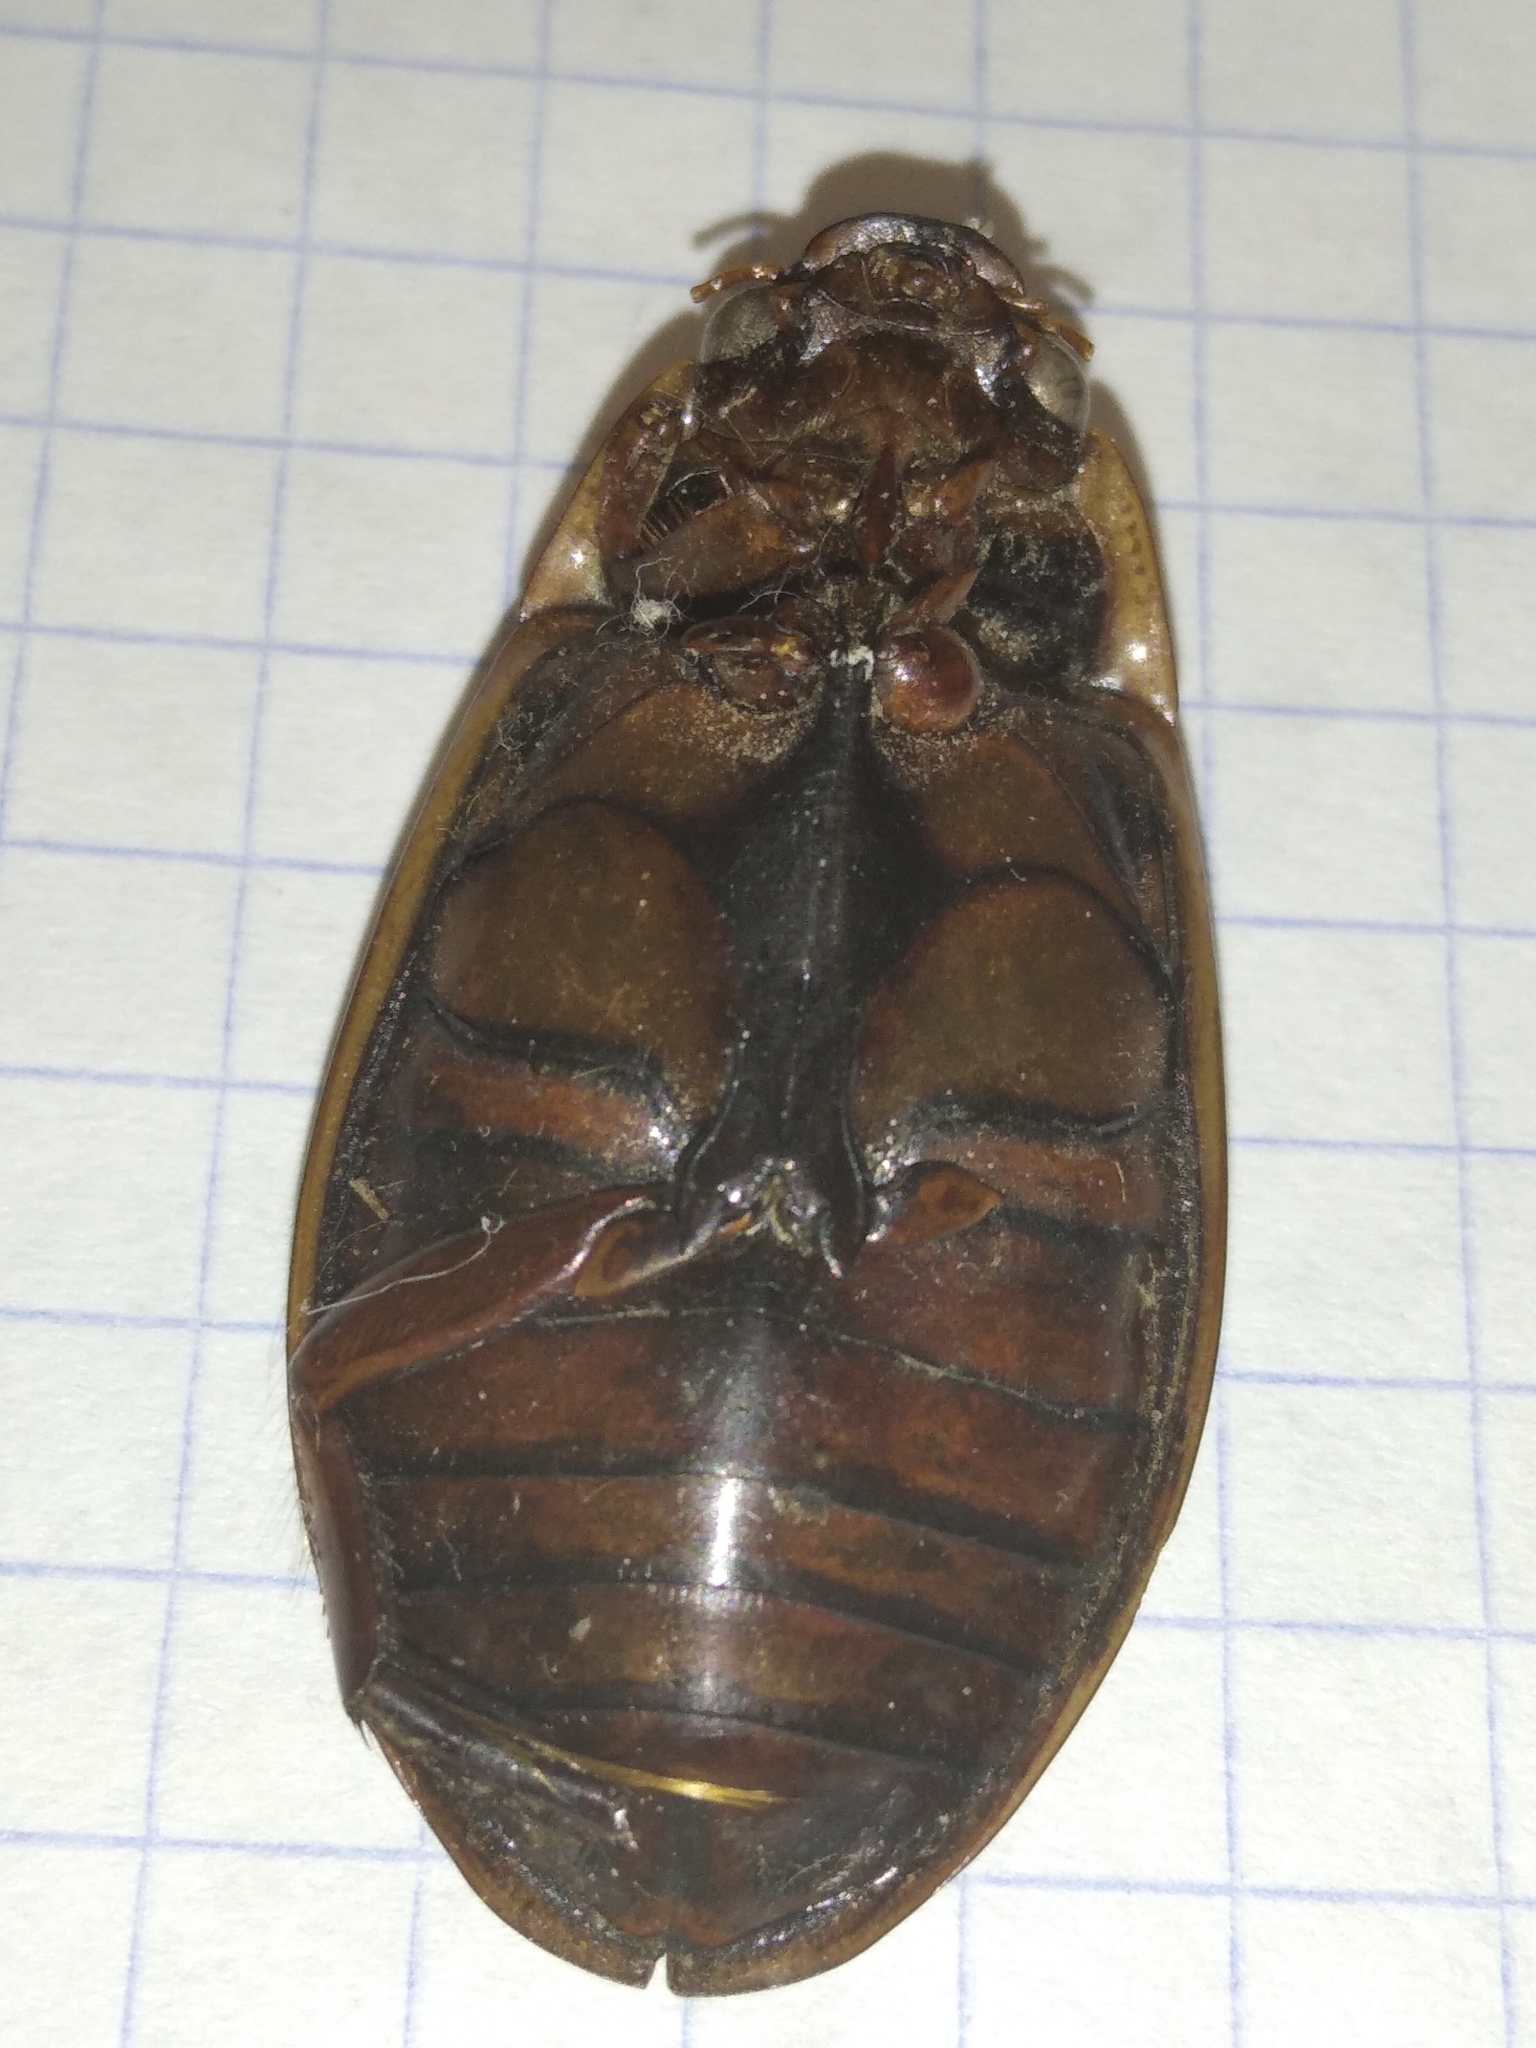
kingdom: Animalia
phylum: Arthropoda
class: Insecta
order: Coleoptera
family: Dytiscidae
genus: Dytiscus
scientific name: Dytiscus marginalis
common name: Great water beetle
